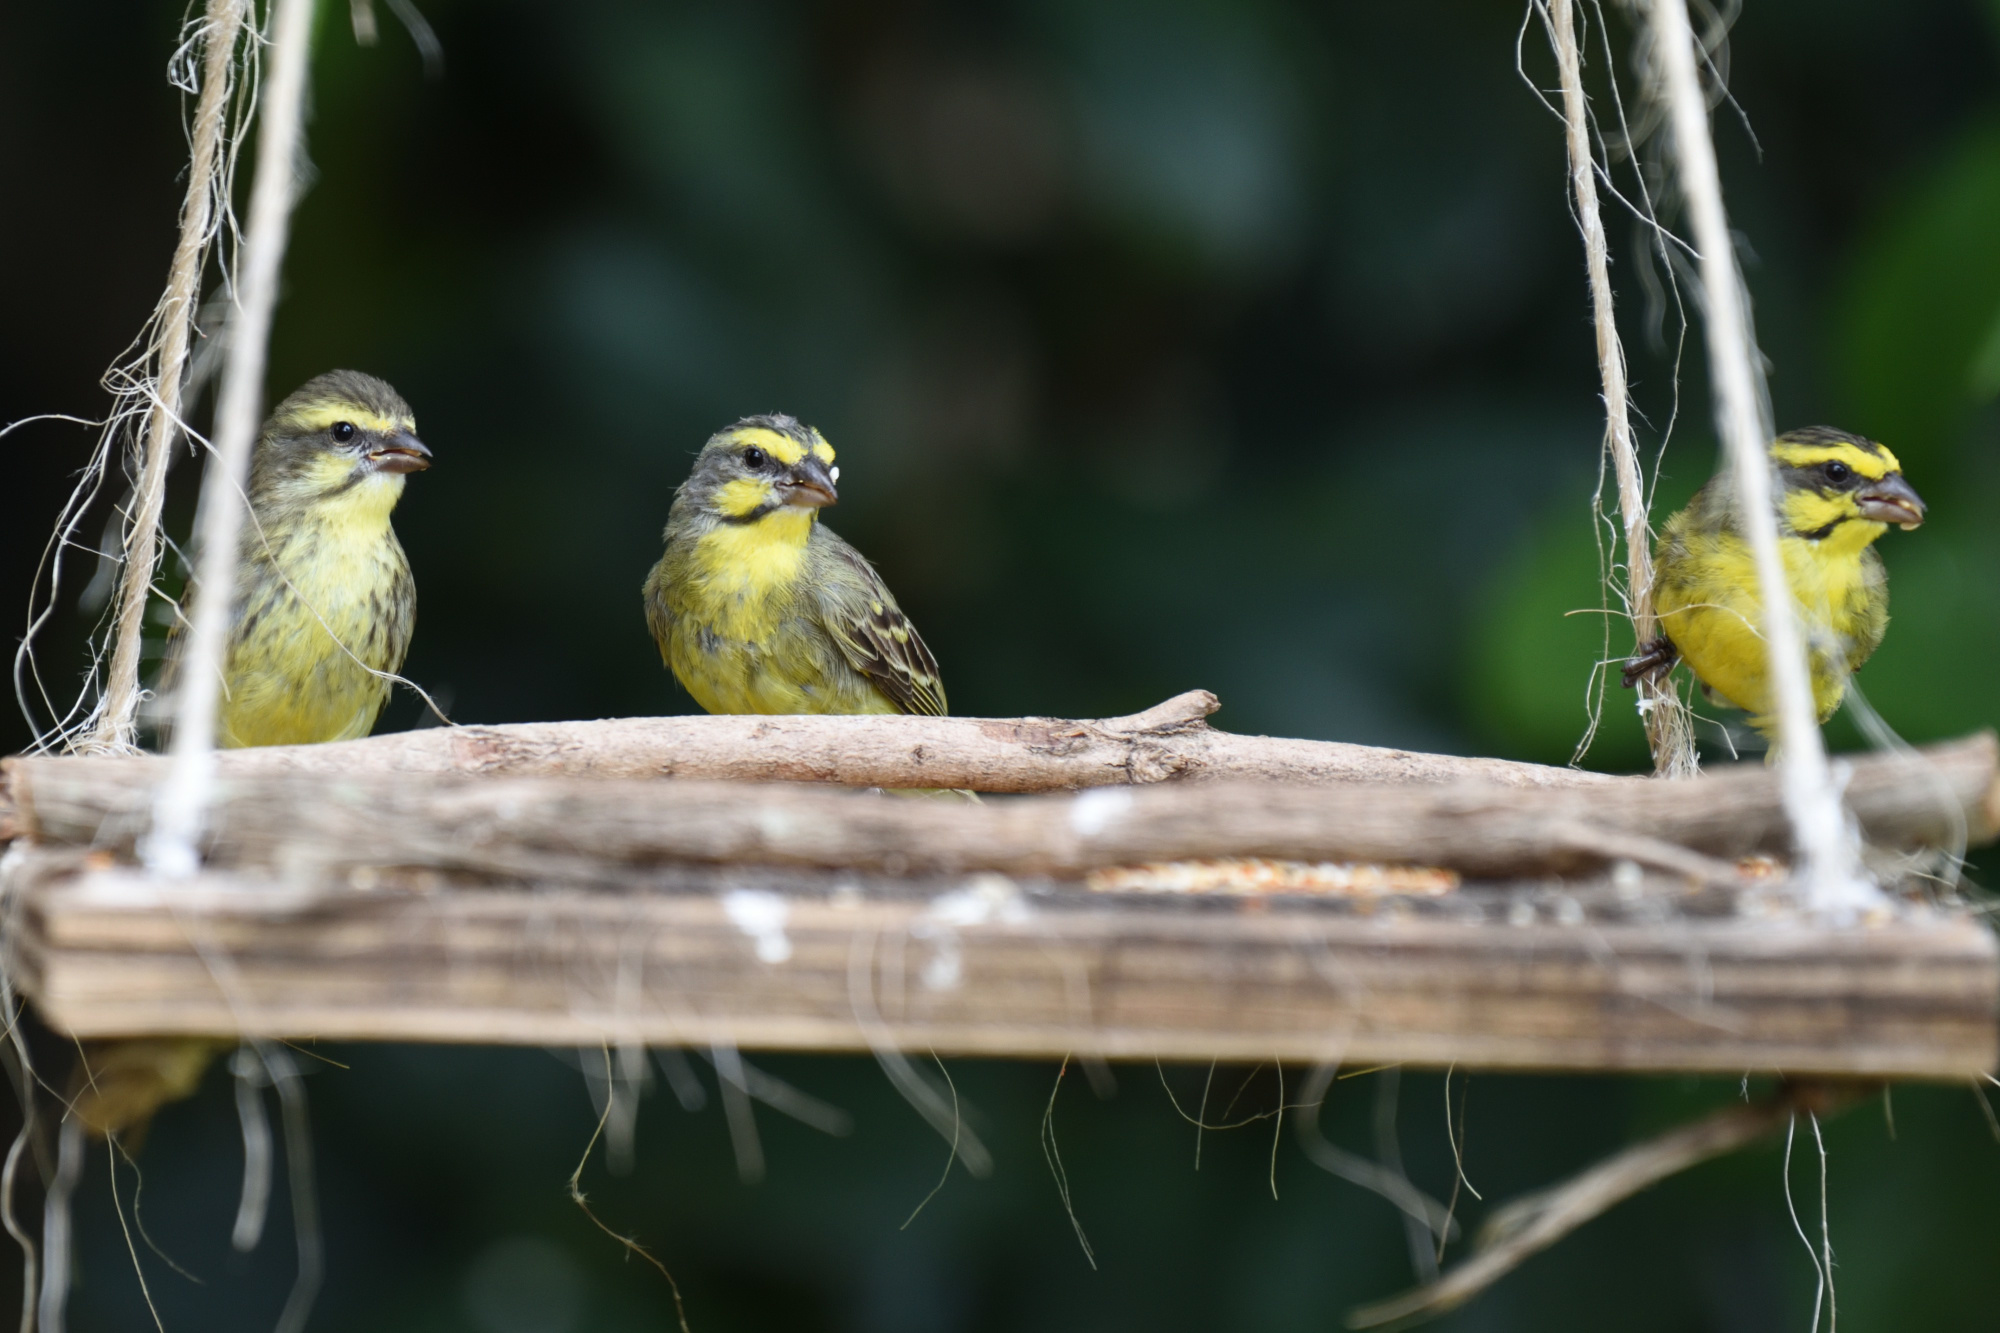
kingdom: Animalia
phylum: Chordata
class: Aves
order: Passeriformes
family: Fringillidae
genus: Crithagra
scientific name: Crithagra mozambica
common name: Yellow-fronted canary
